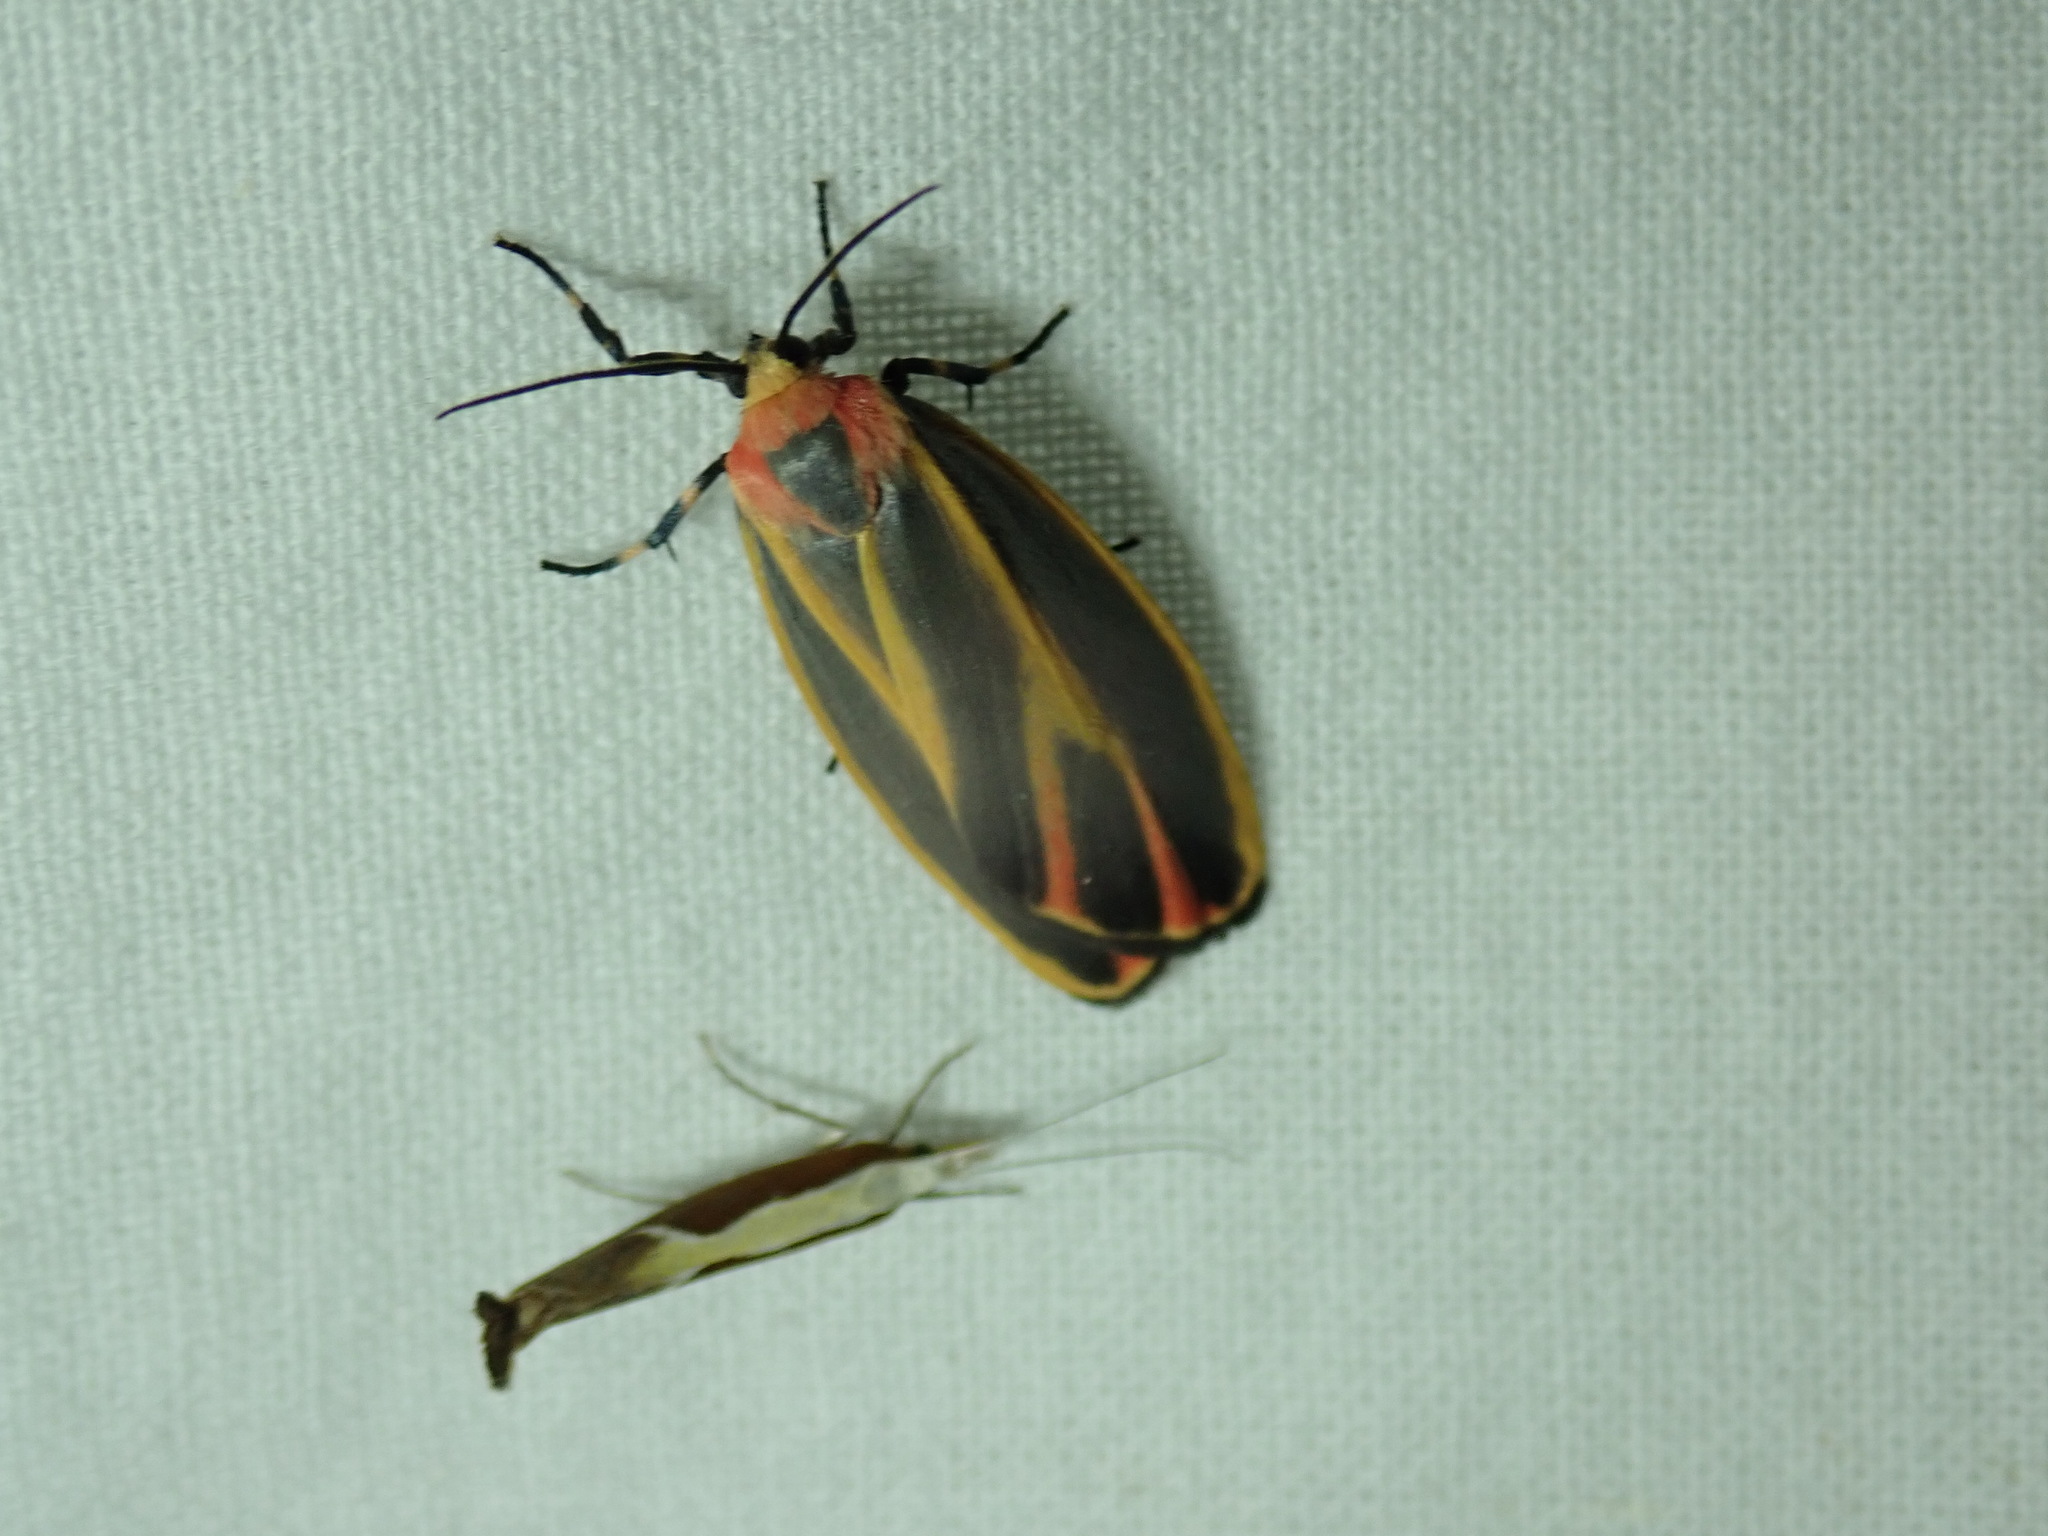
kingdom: Animalia
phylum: Arthropoda
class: Insecta
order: Lepidoptera
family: Erebidae
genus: Hypoprepia
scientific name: Hypoprepia fucosa
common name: Painted lichen moth
